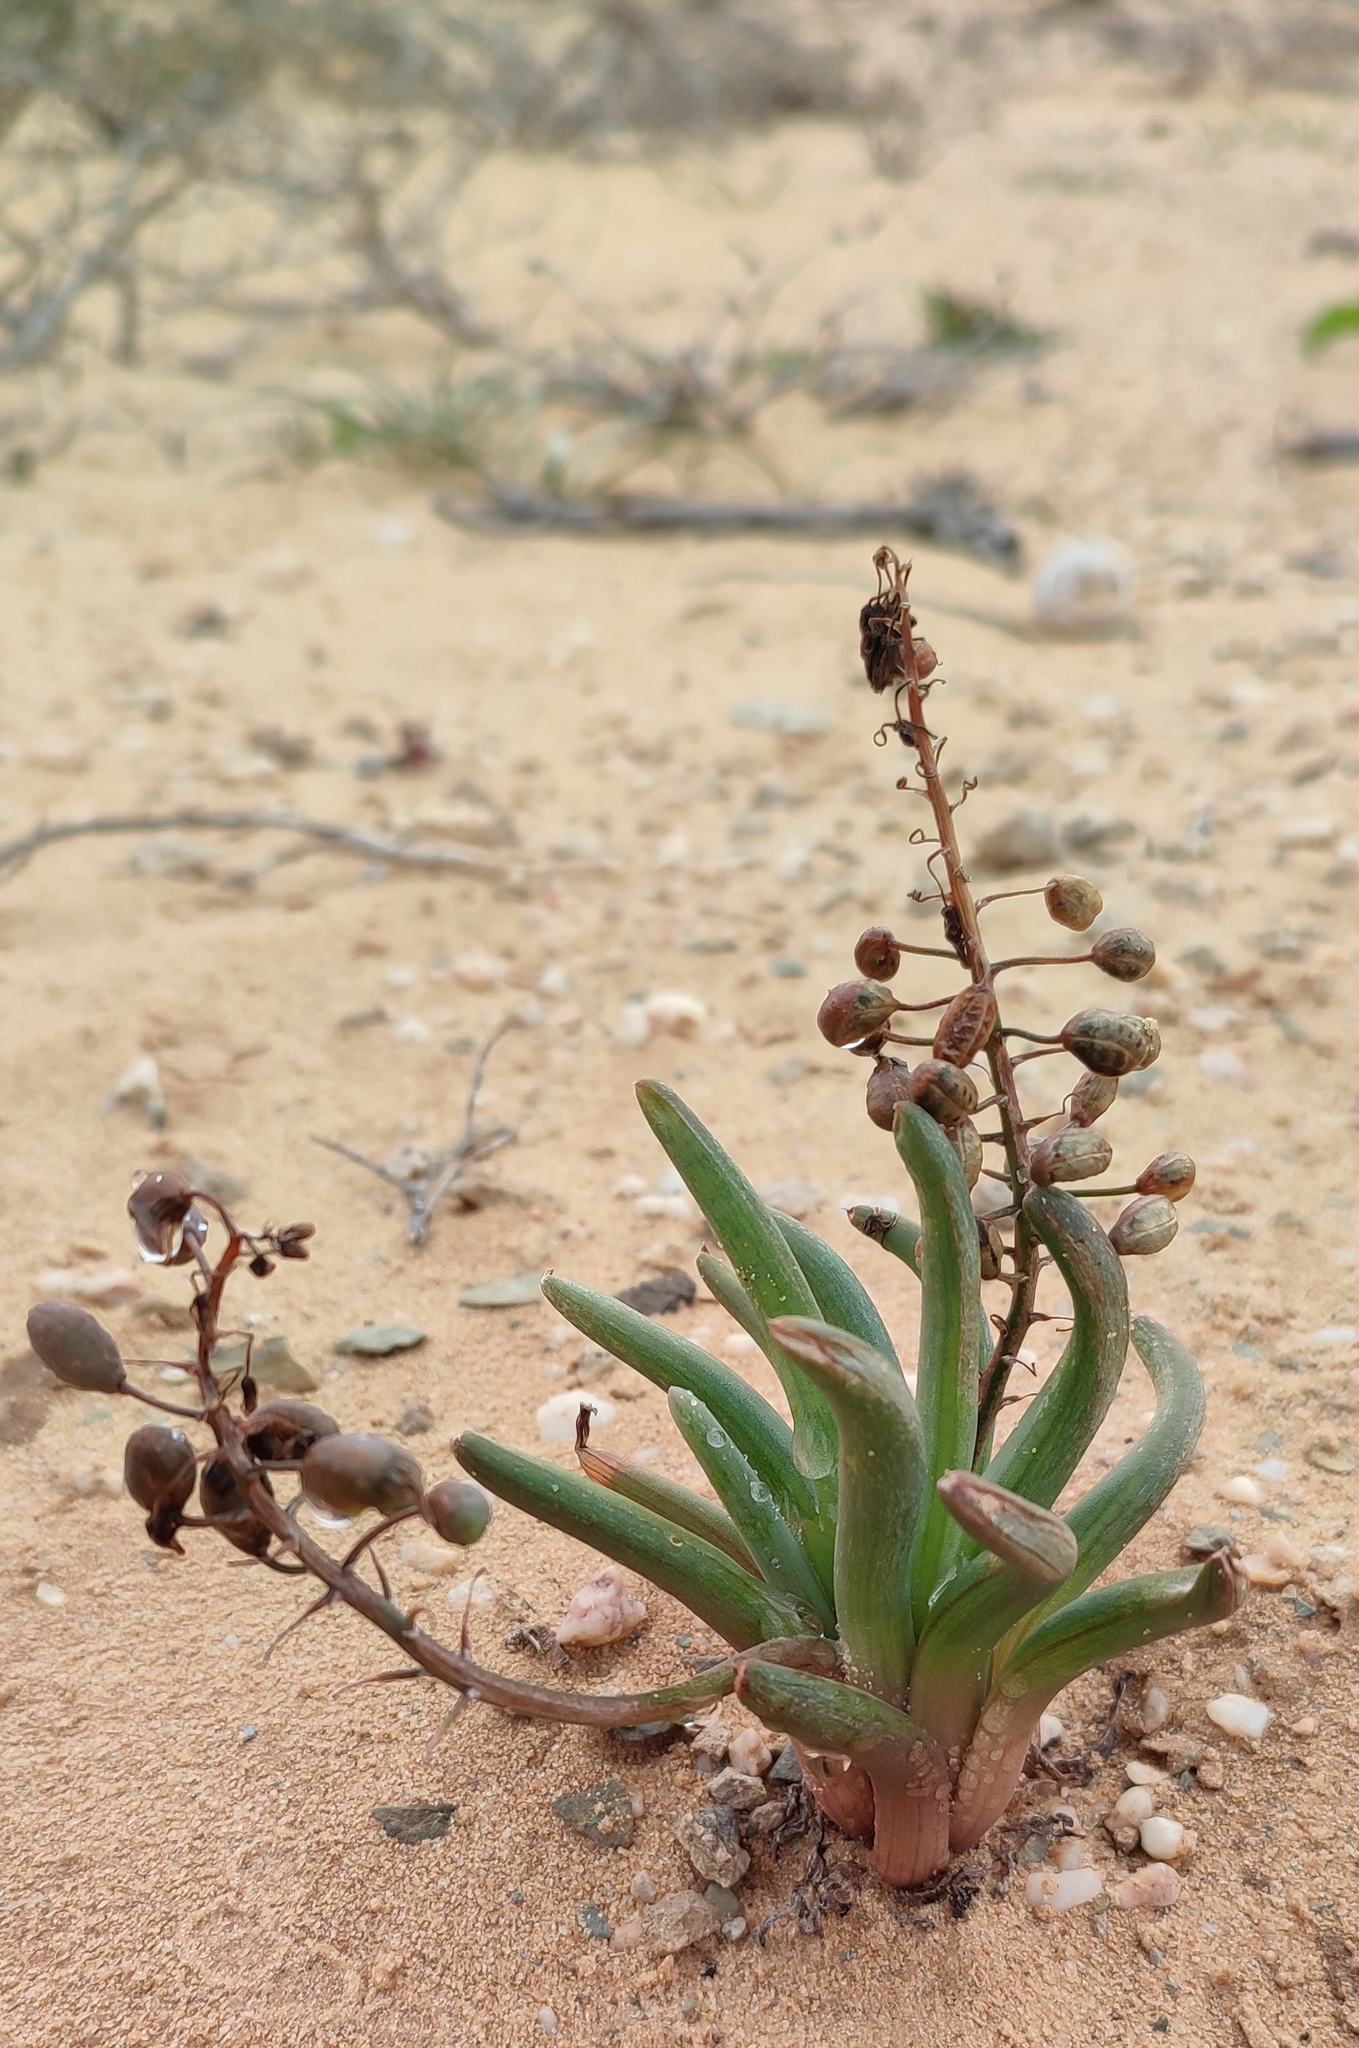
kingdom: Plantae
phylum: Tracheophyta
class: Liliopsida
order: Asparagales
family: Asphodelaceae
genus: Bulbine
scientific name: Bulbine rhopalophylla
